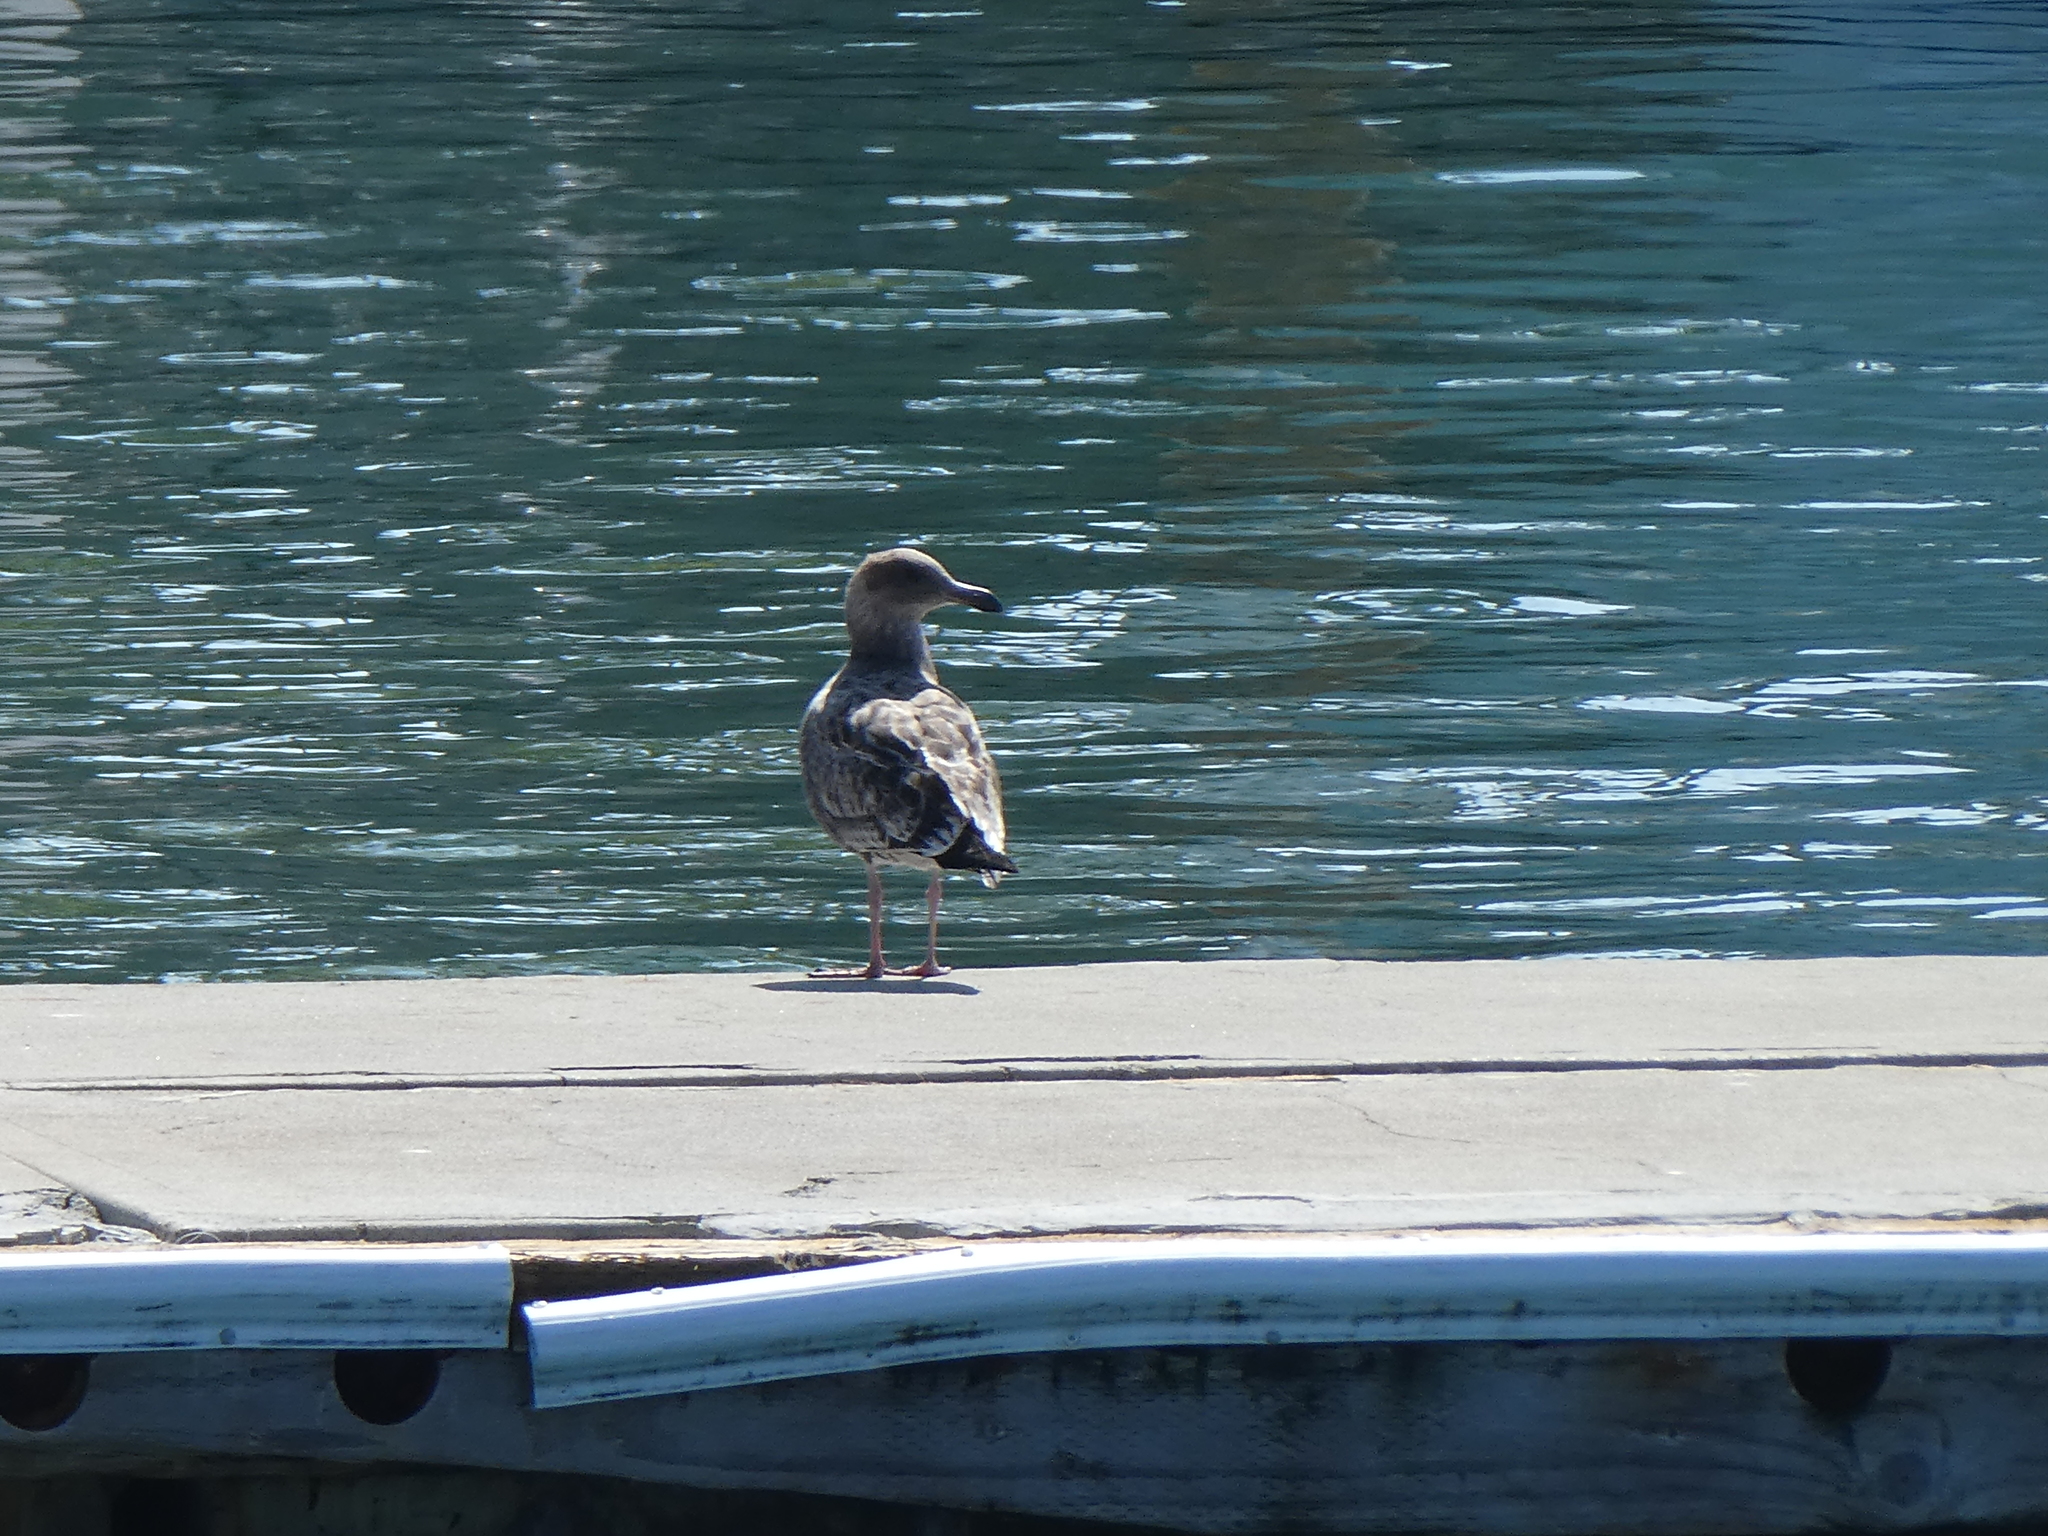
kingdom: Animalia
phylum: Chordata
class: Aves
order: Charadriiformes
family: Laridae
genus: Larus
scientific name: Larus occidentalis
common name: Western gull
